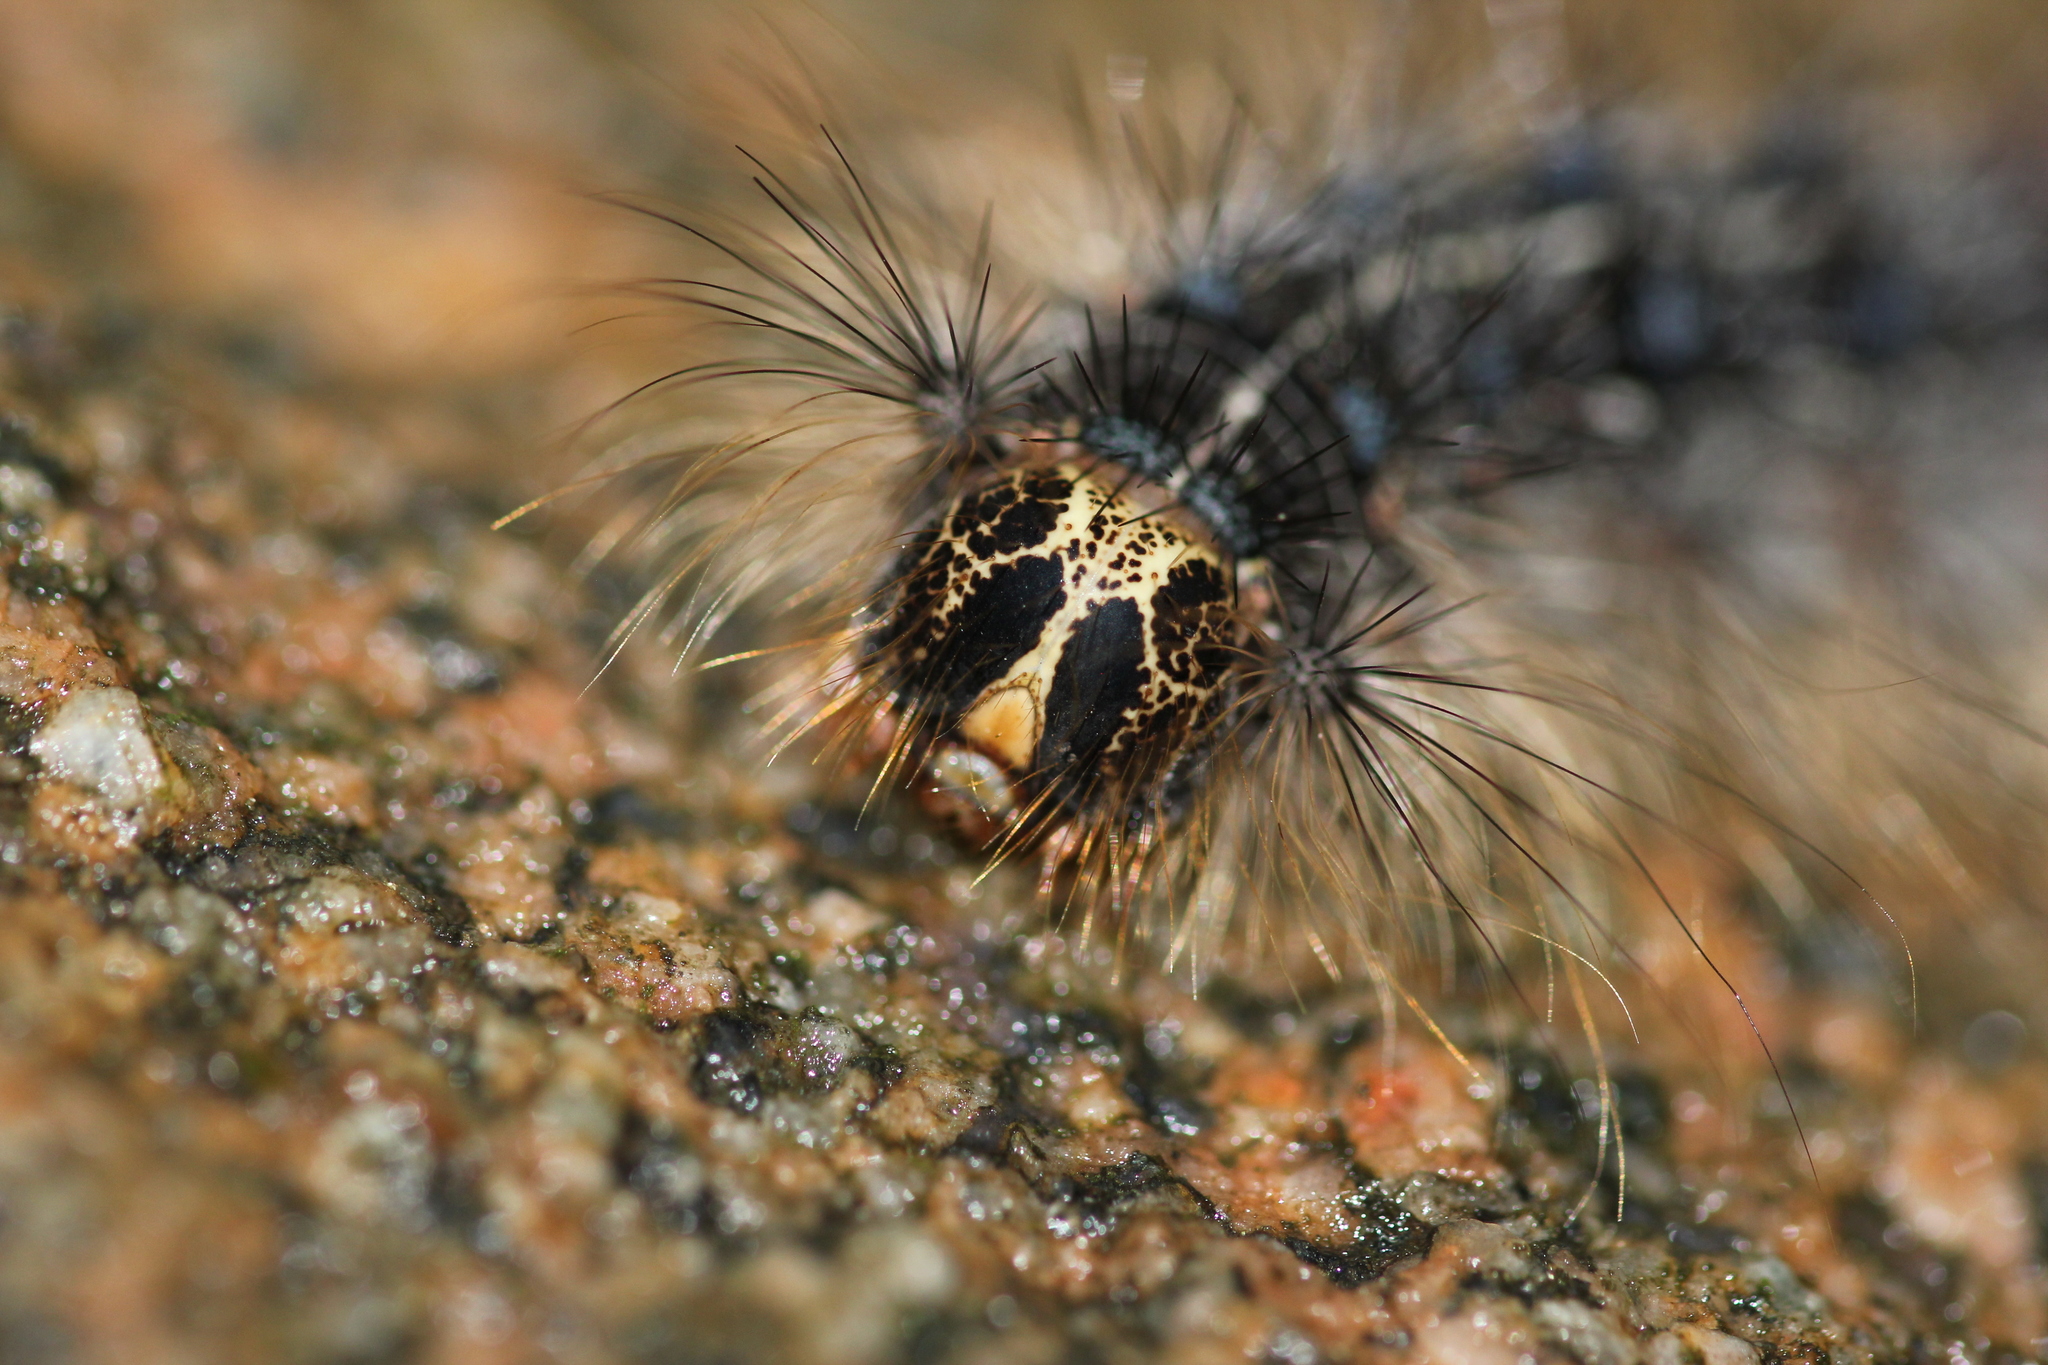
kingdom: Animalia
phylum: Arthropoda
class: Insecta
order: Lepidoptera
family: Erebidae
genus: Lymantria
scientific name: Lymantria dispar
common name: Gypsy moth
